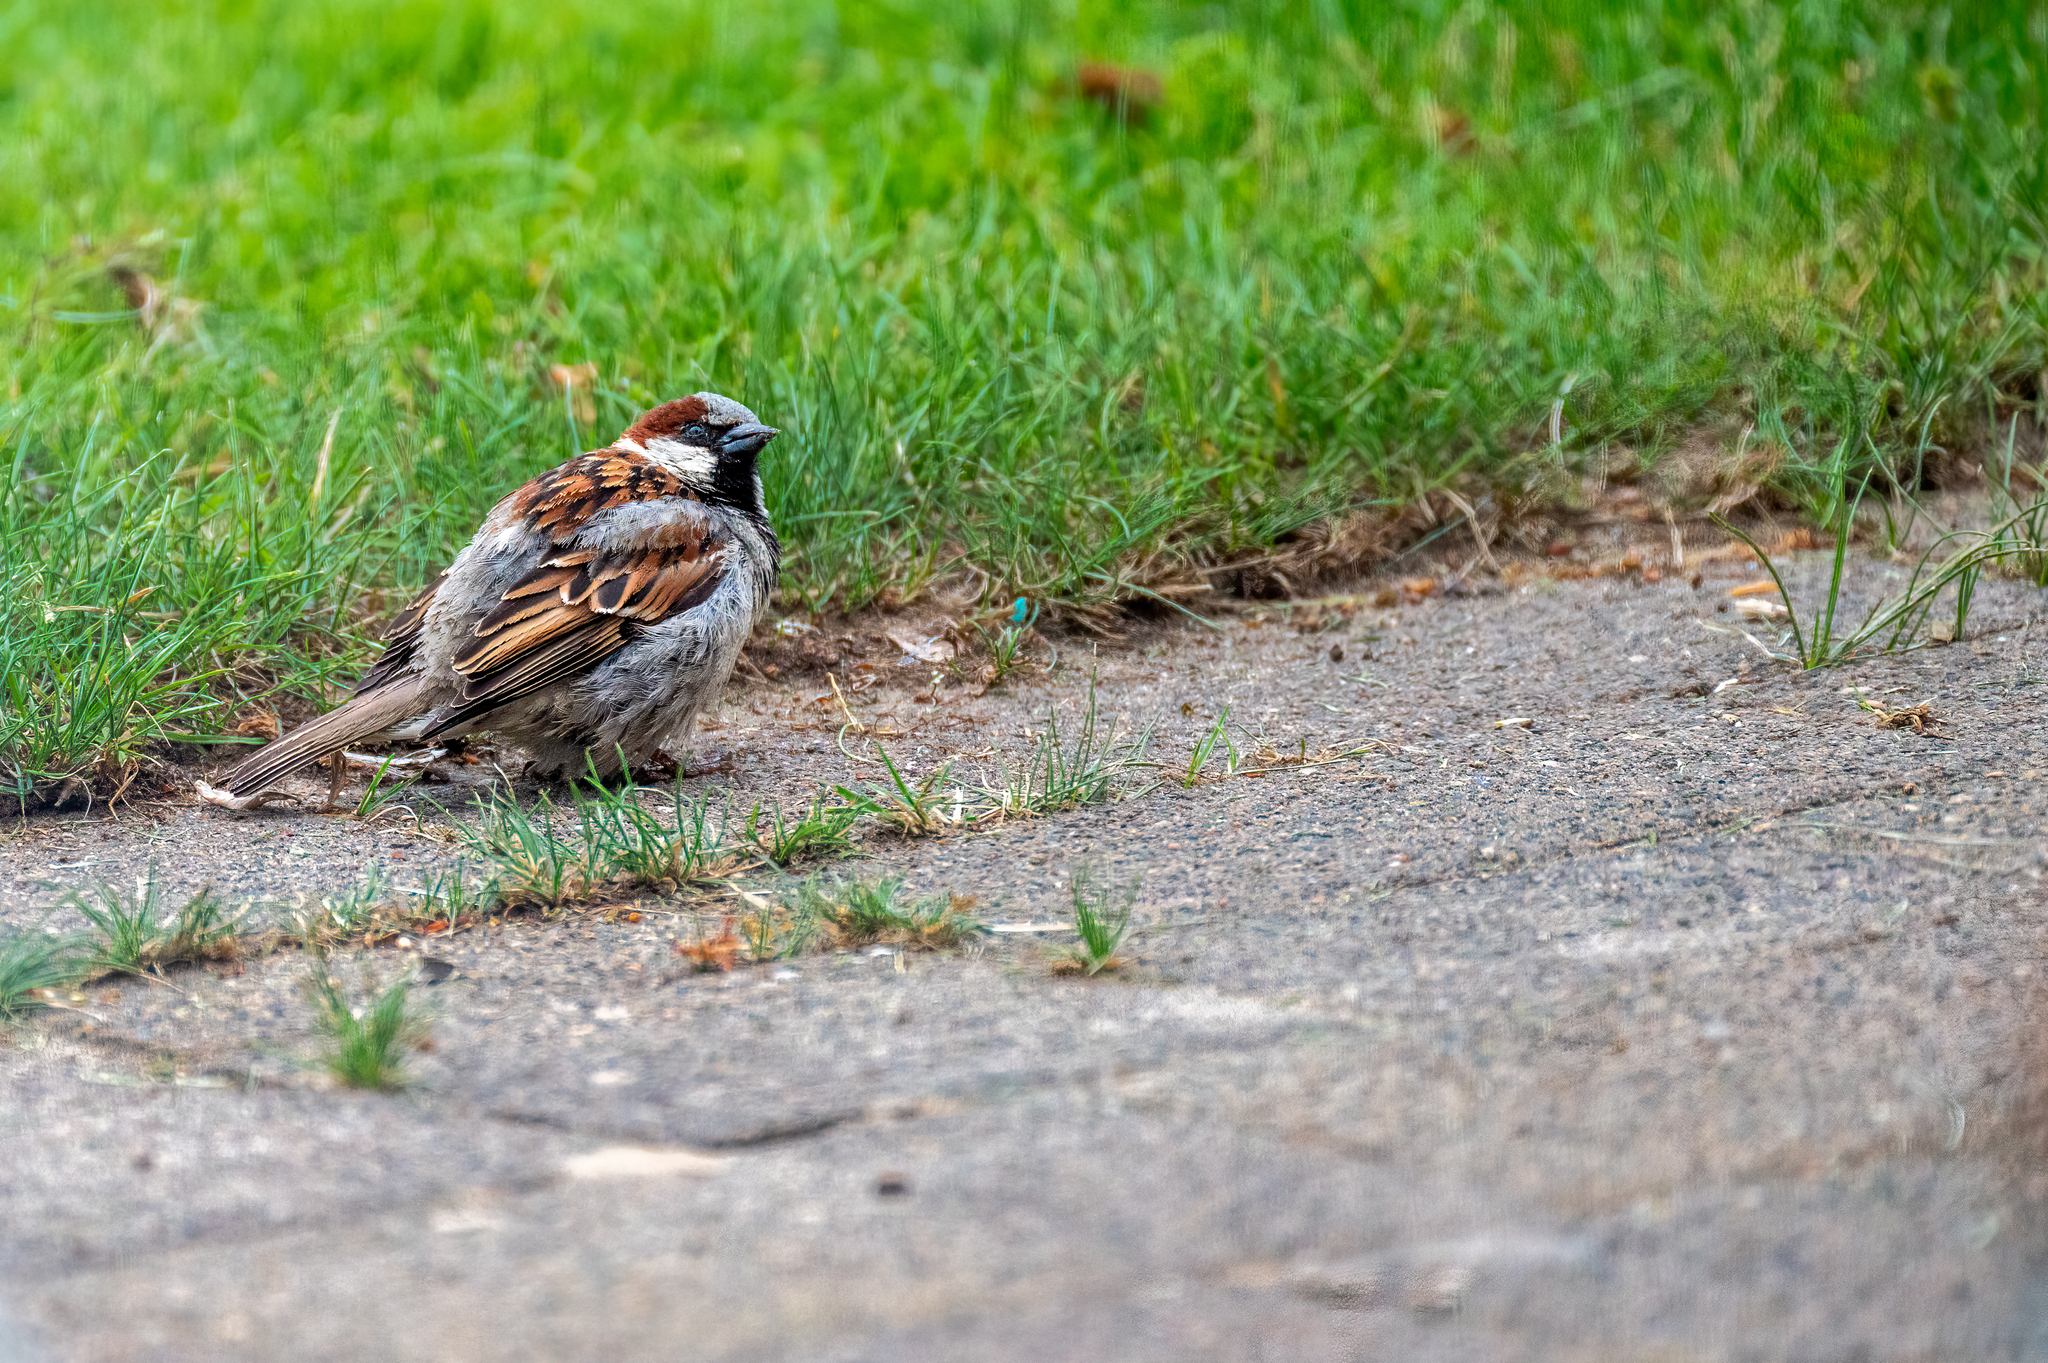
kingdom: Animalia
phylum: Chordata
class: Aves
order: Passeriformes
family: Passeridae
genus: Passer
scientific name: Passer domesticus
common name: House sparrow
